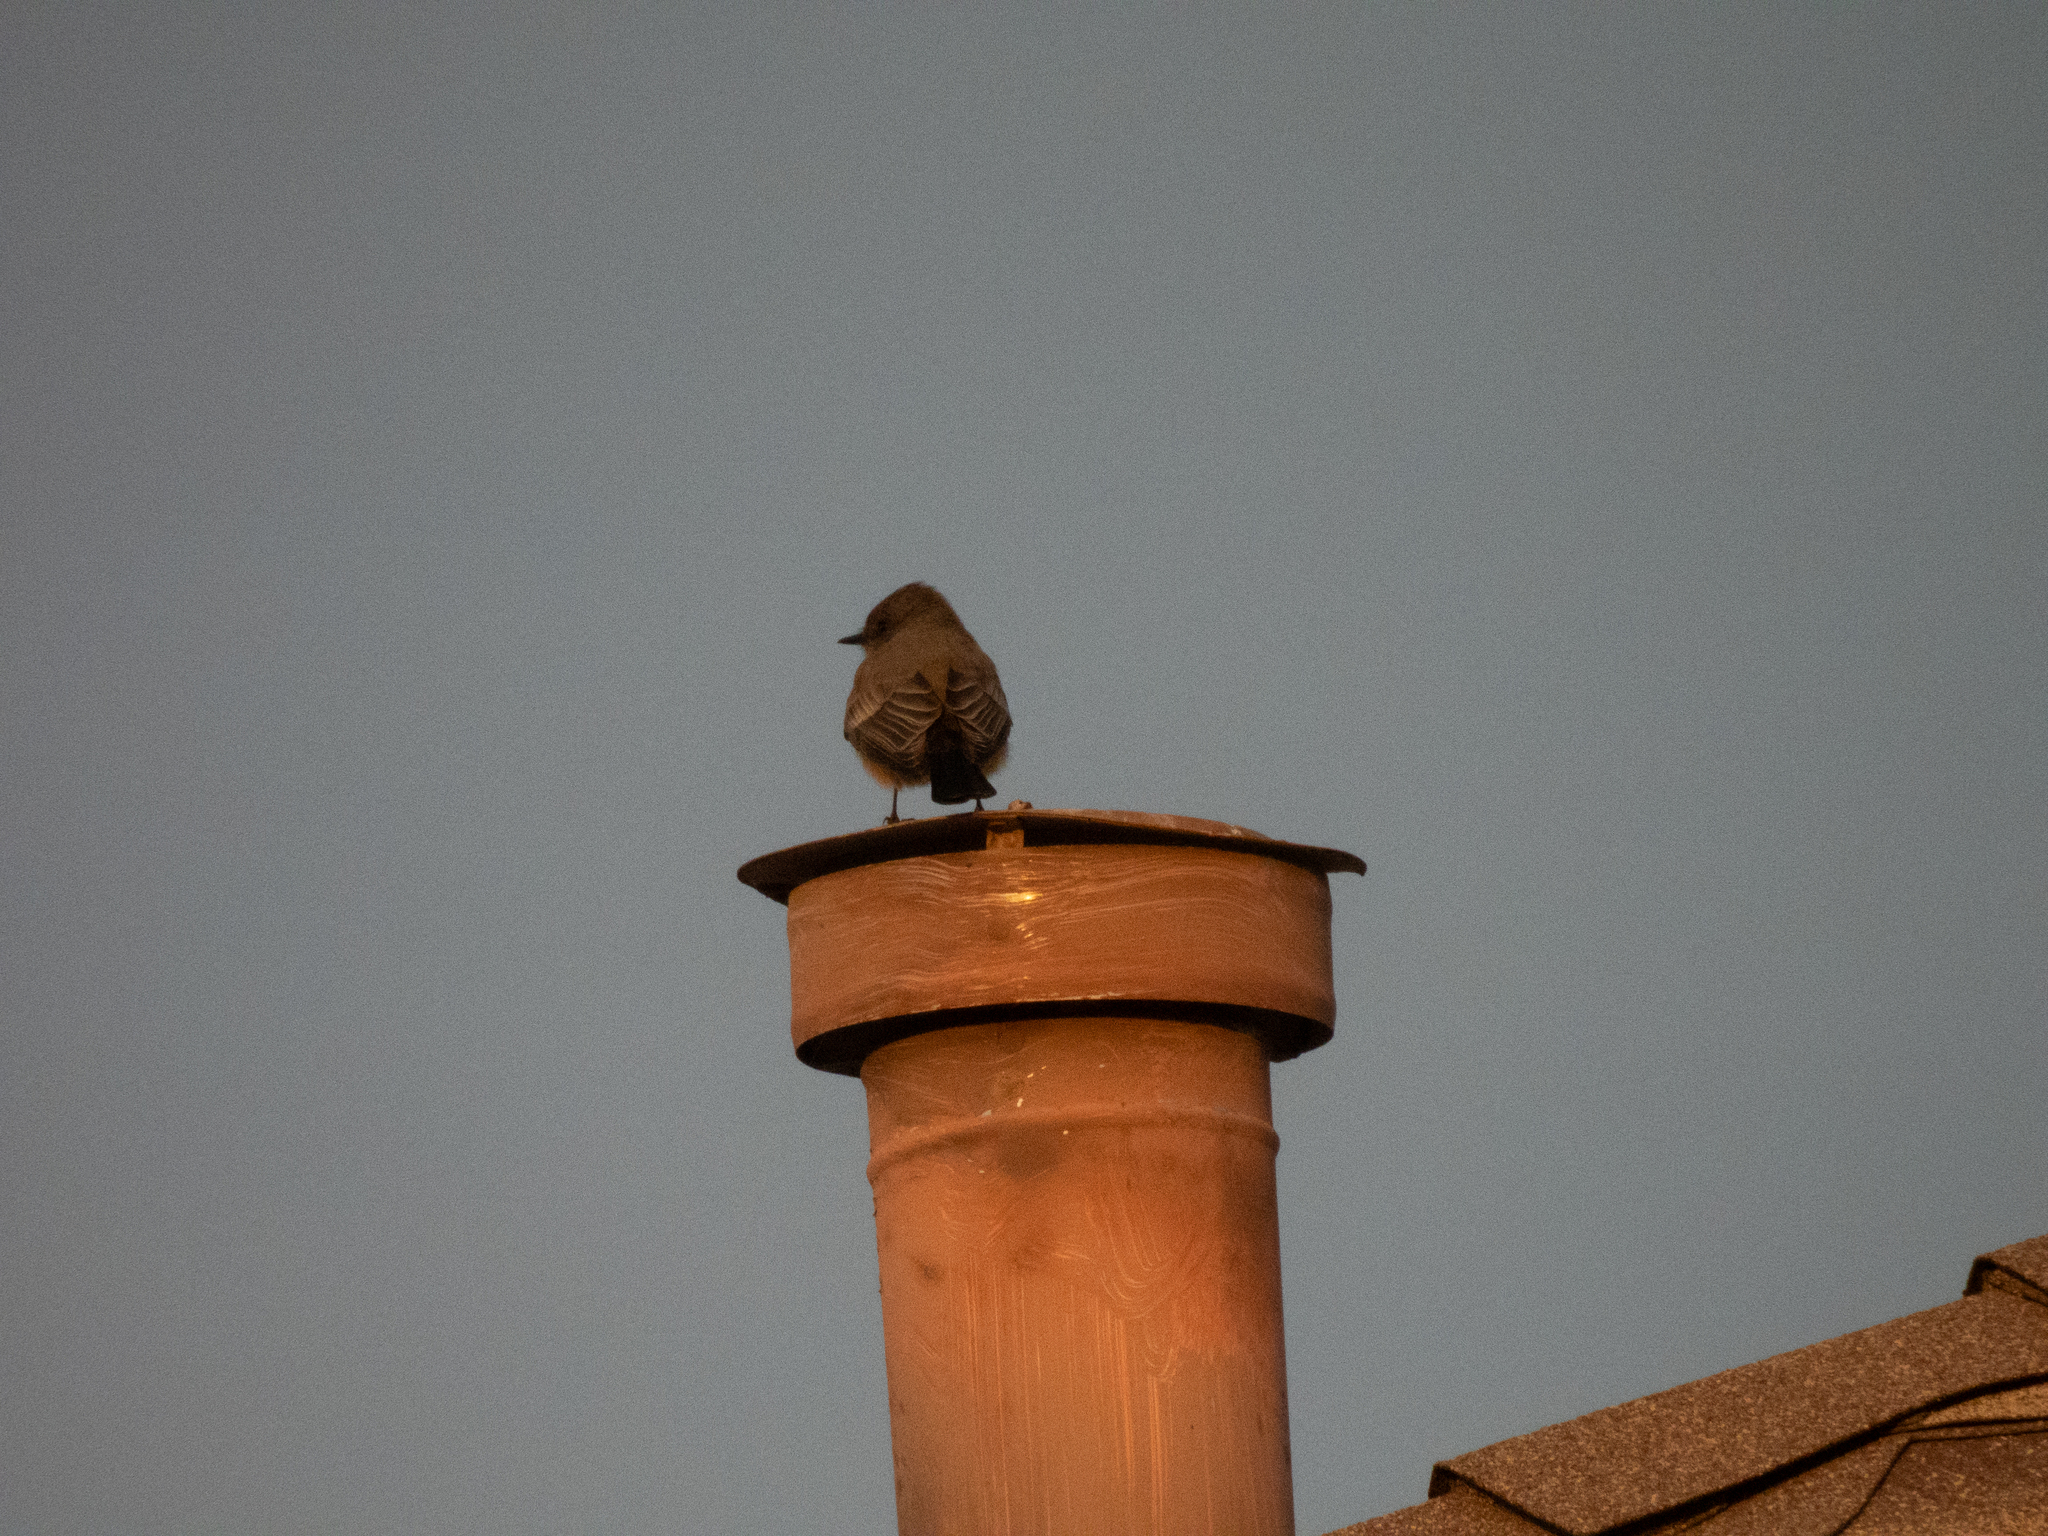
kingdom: Animalia
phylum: Chordata
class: Aves
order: Passeriformes
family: Tyrannidae
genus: Sayornis
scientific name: Sayornis saya
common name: Say's phoebe
